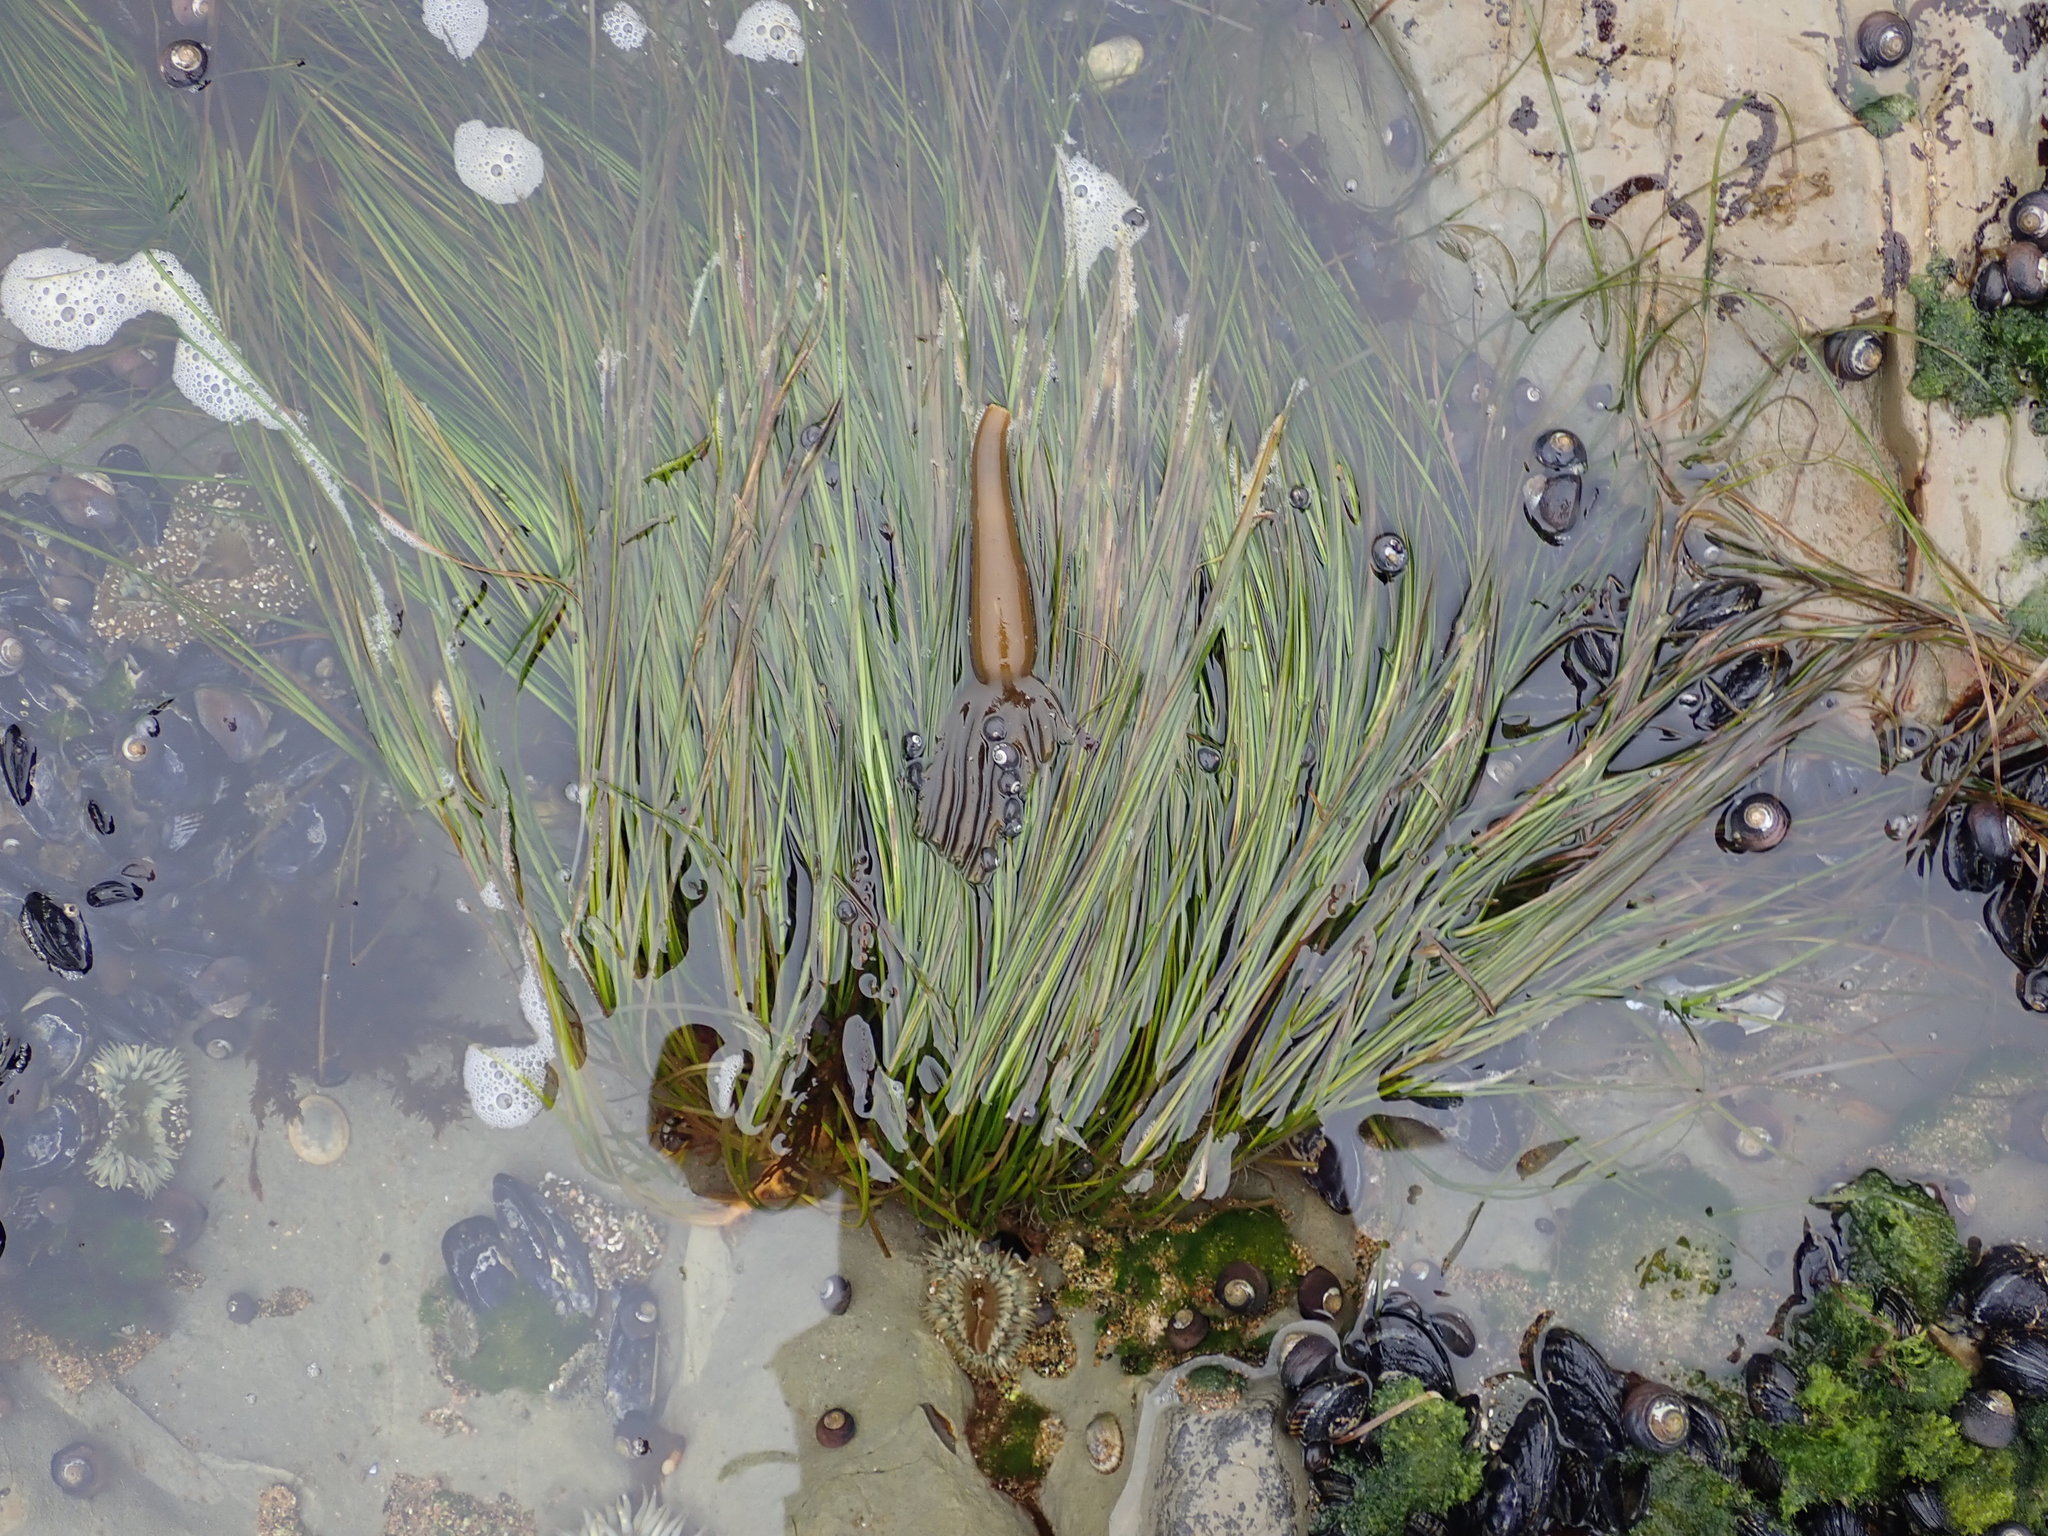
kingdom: Plantae
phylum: Tracheophyta
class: Liliopsida
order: Alismatales
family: Zosteraceae
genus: Phyllospadix
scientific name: Phyllospadix torreyi
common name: Surfgrass
